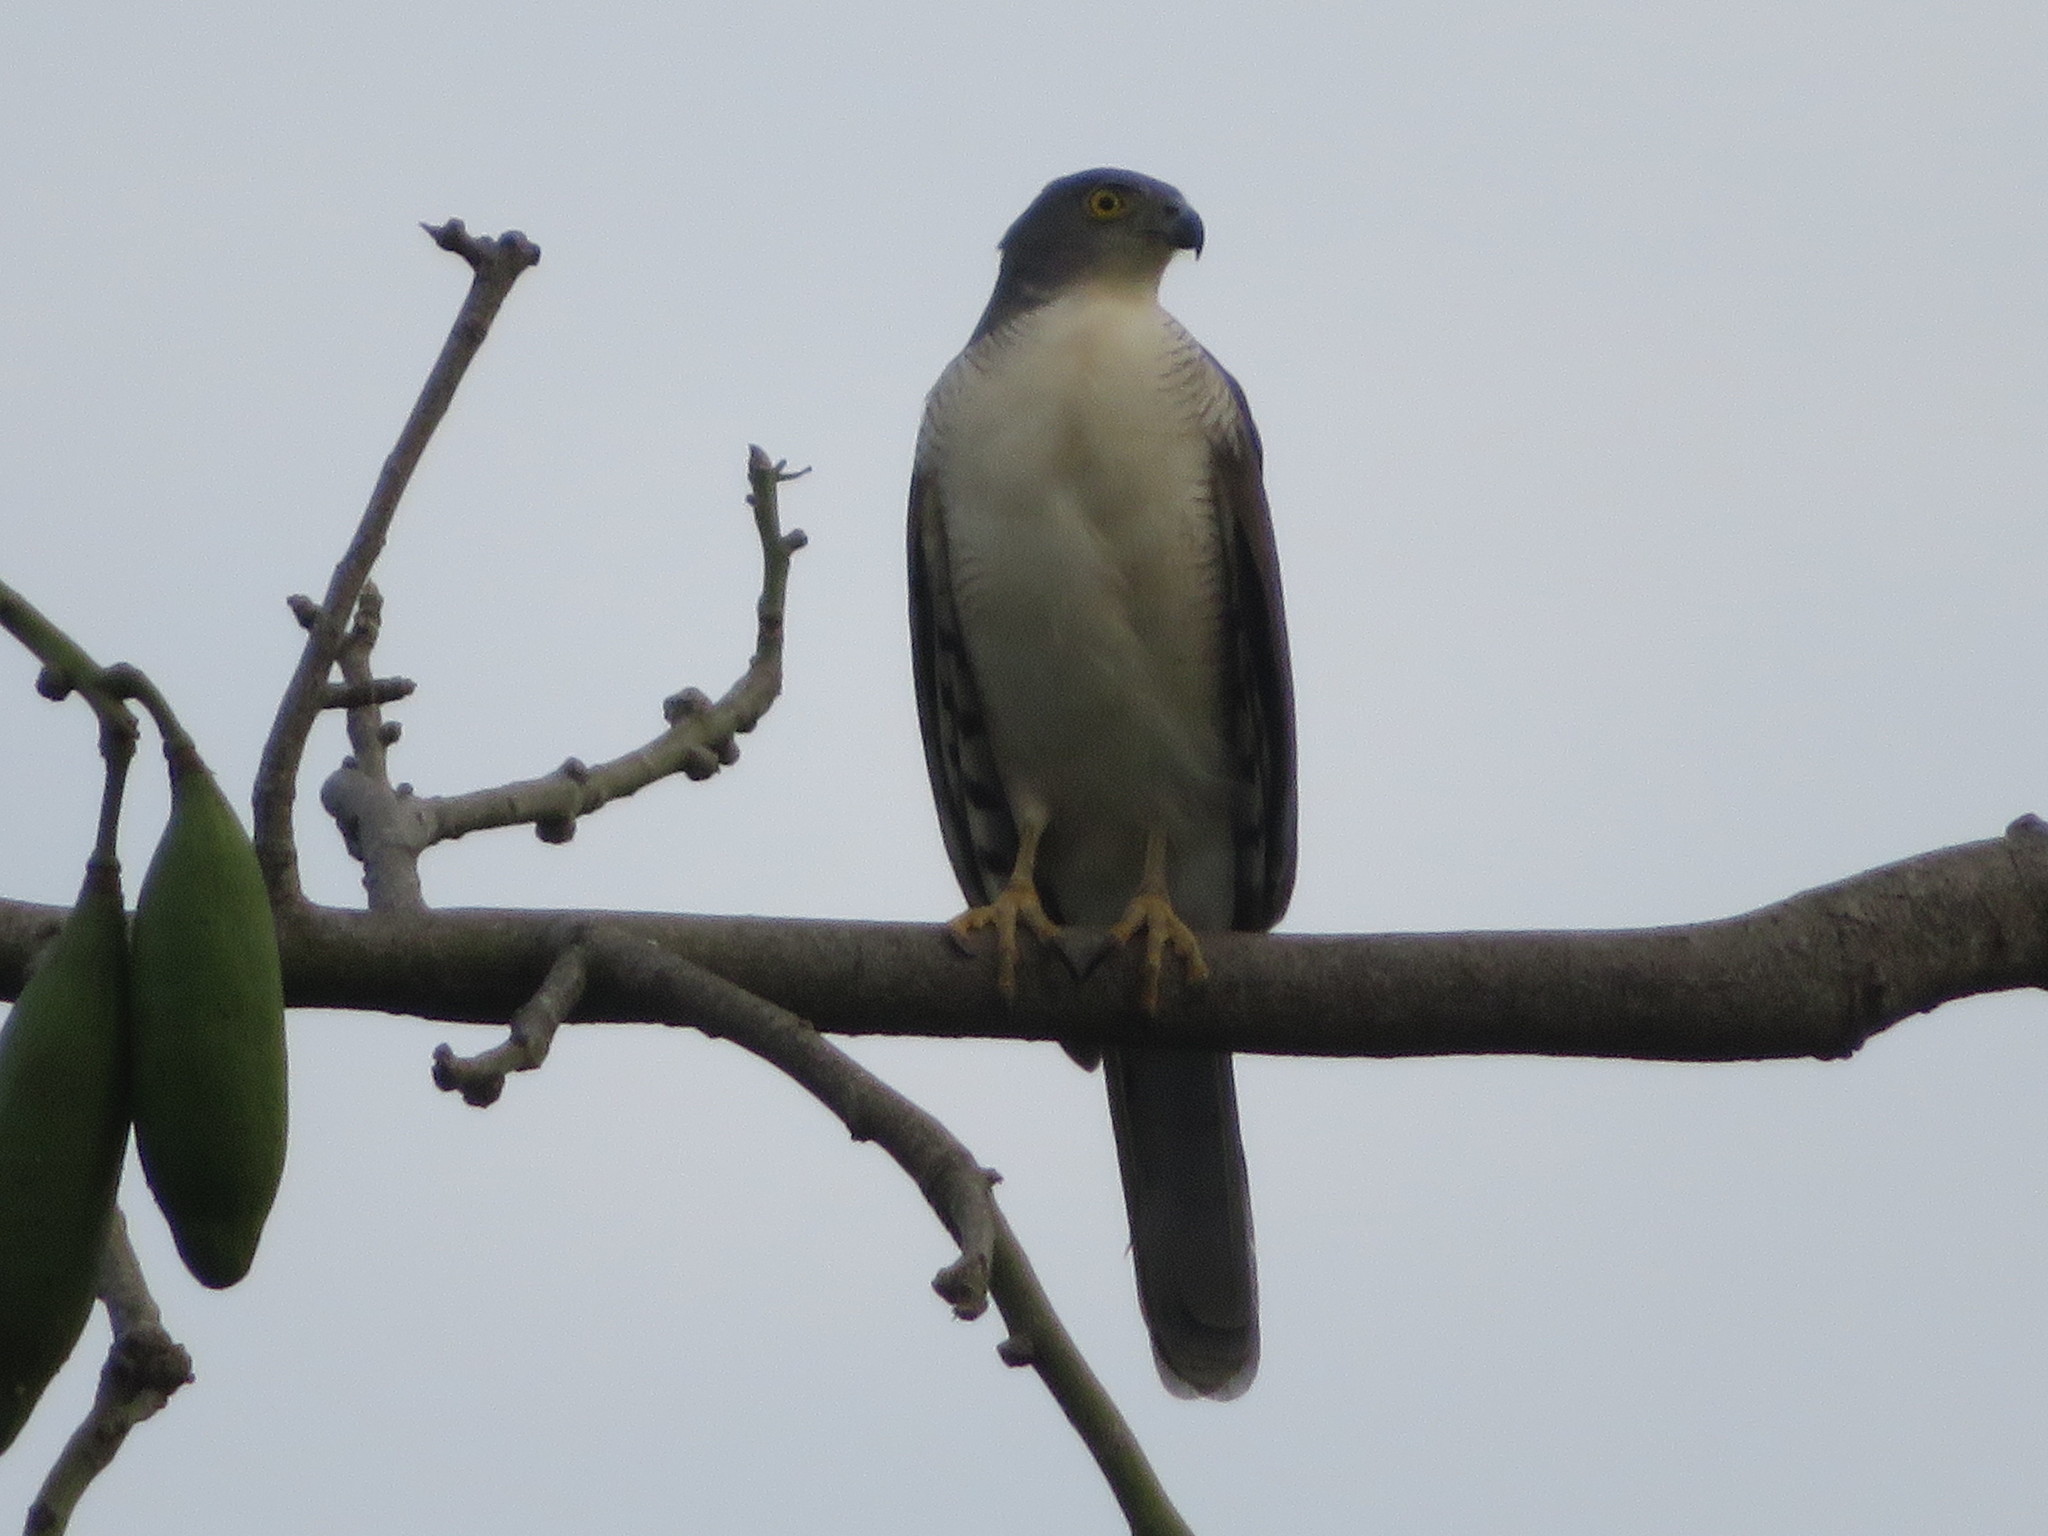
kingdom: Animalia
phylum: Chordata
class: Aves
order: Accipitriformes
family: Accipitridae
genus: Accipiter
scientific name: Accipiter tachiro
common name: African goshawk
